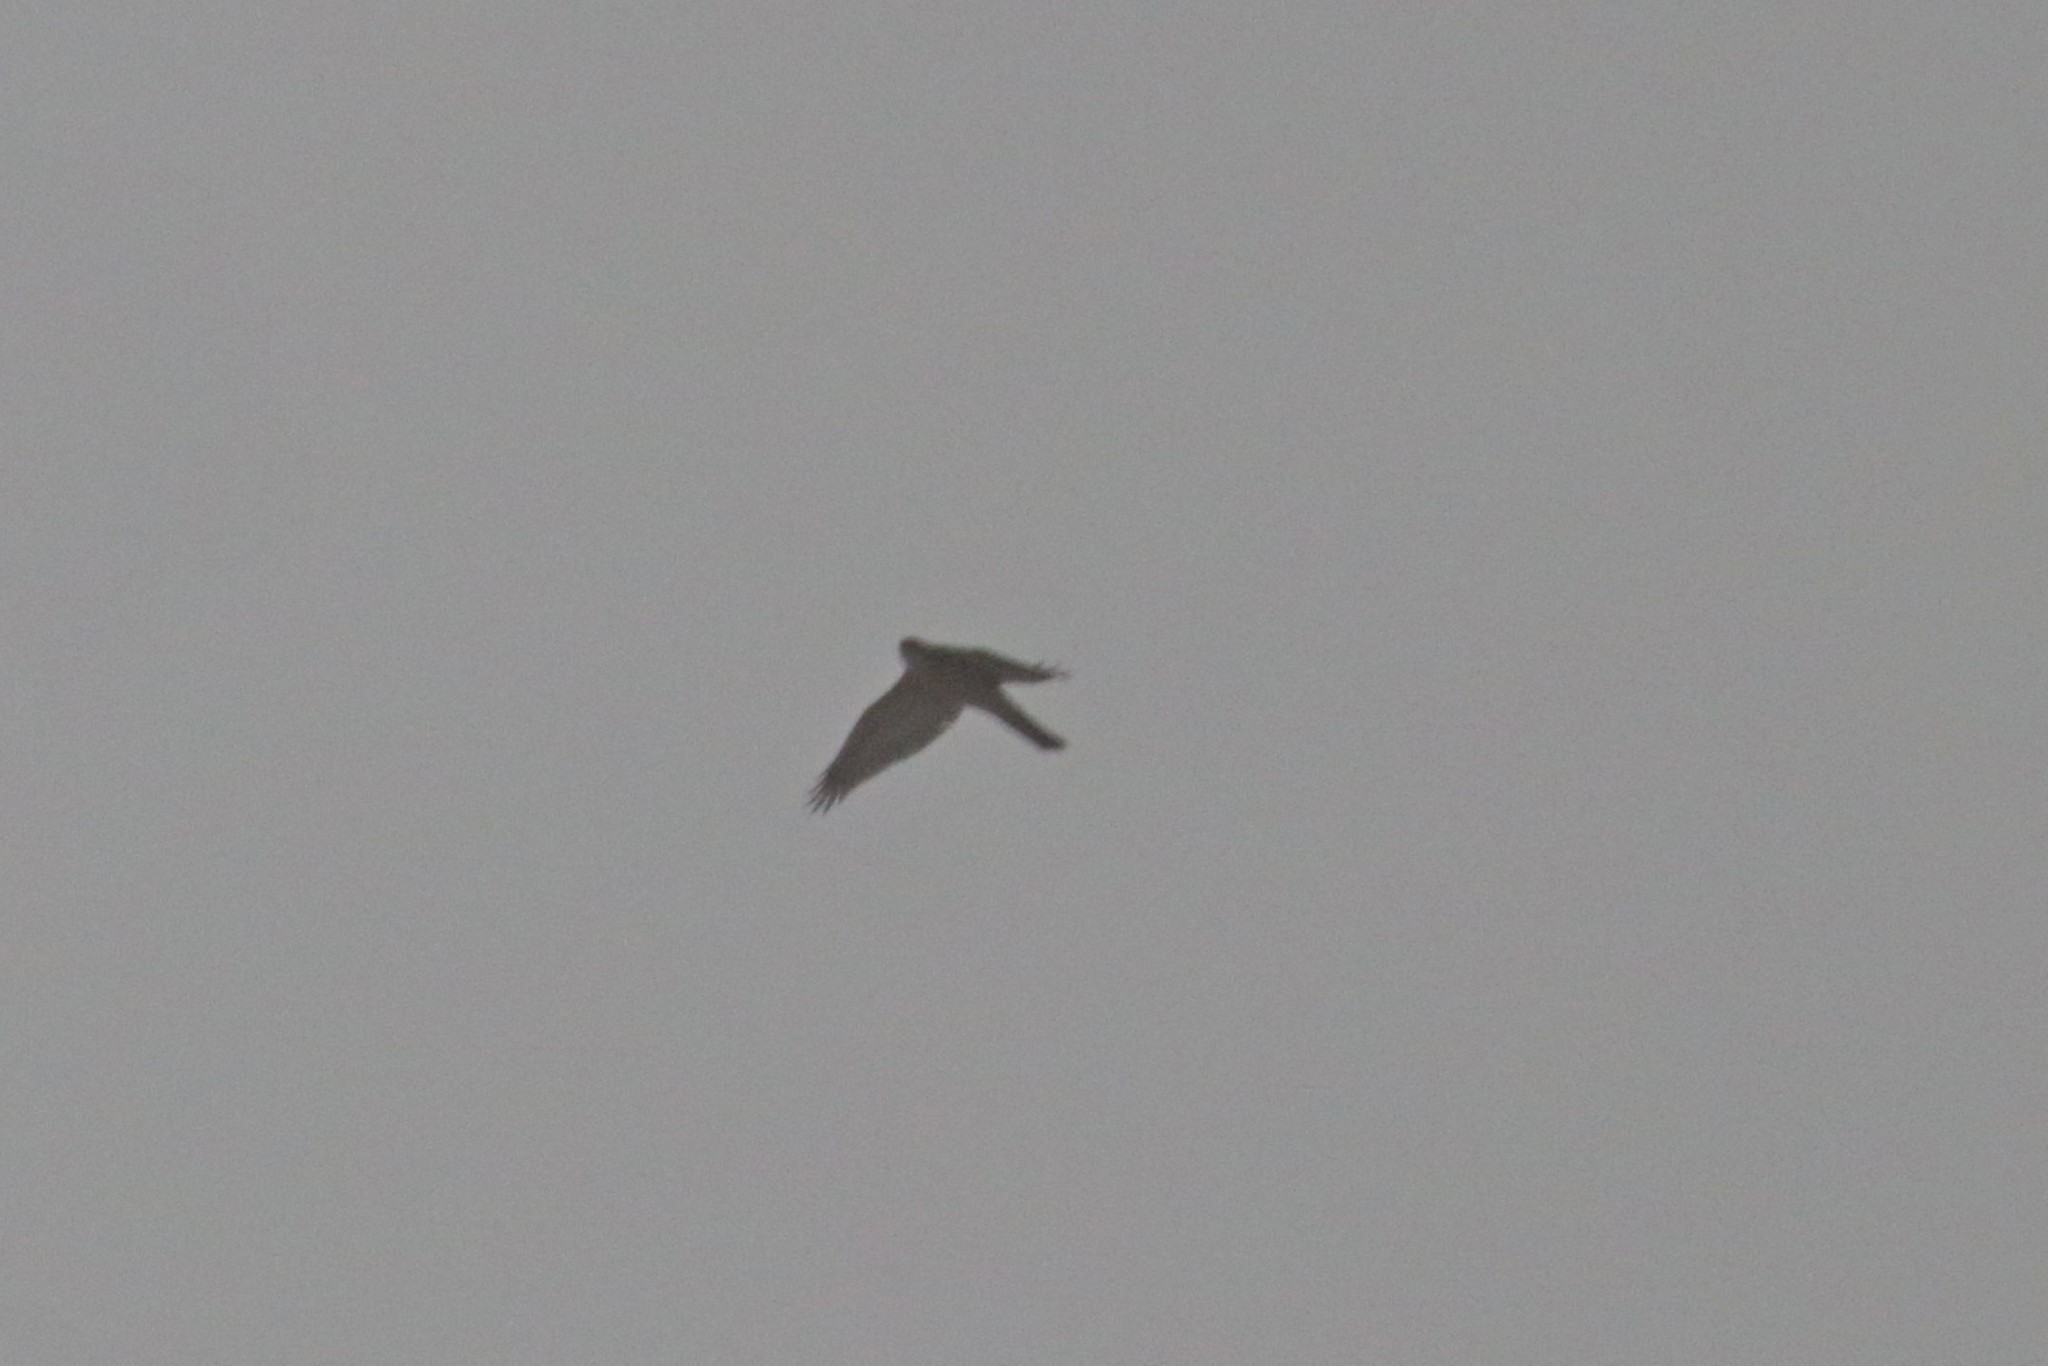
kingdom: Animalia
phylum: Chordata
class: Aves
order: Accipitriformes
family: Accipitridae
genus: Accipiter
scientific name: Accipiter nisus
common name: Eurasian sparrowhawk
